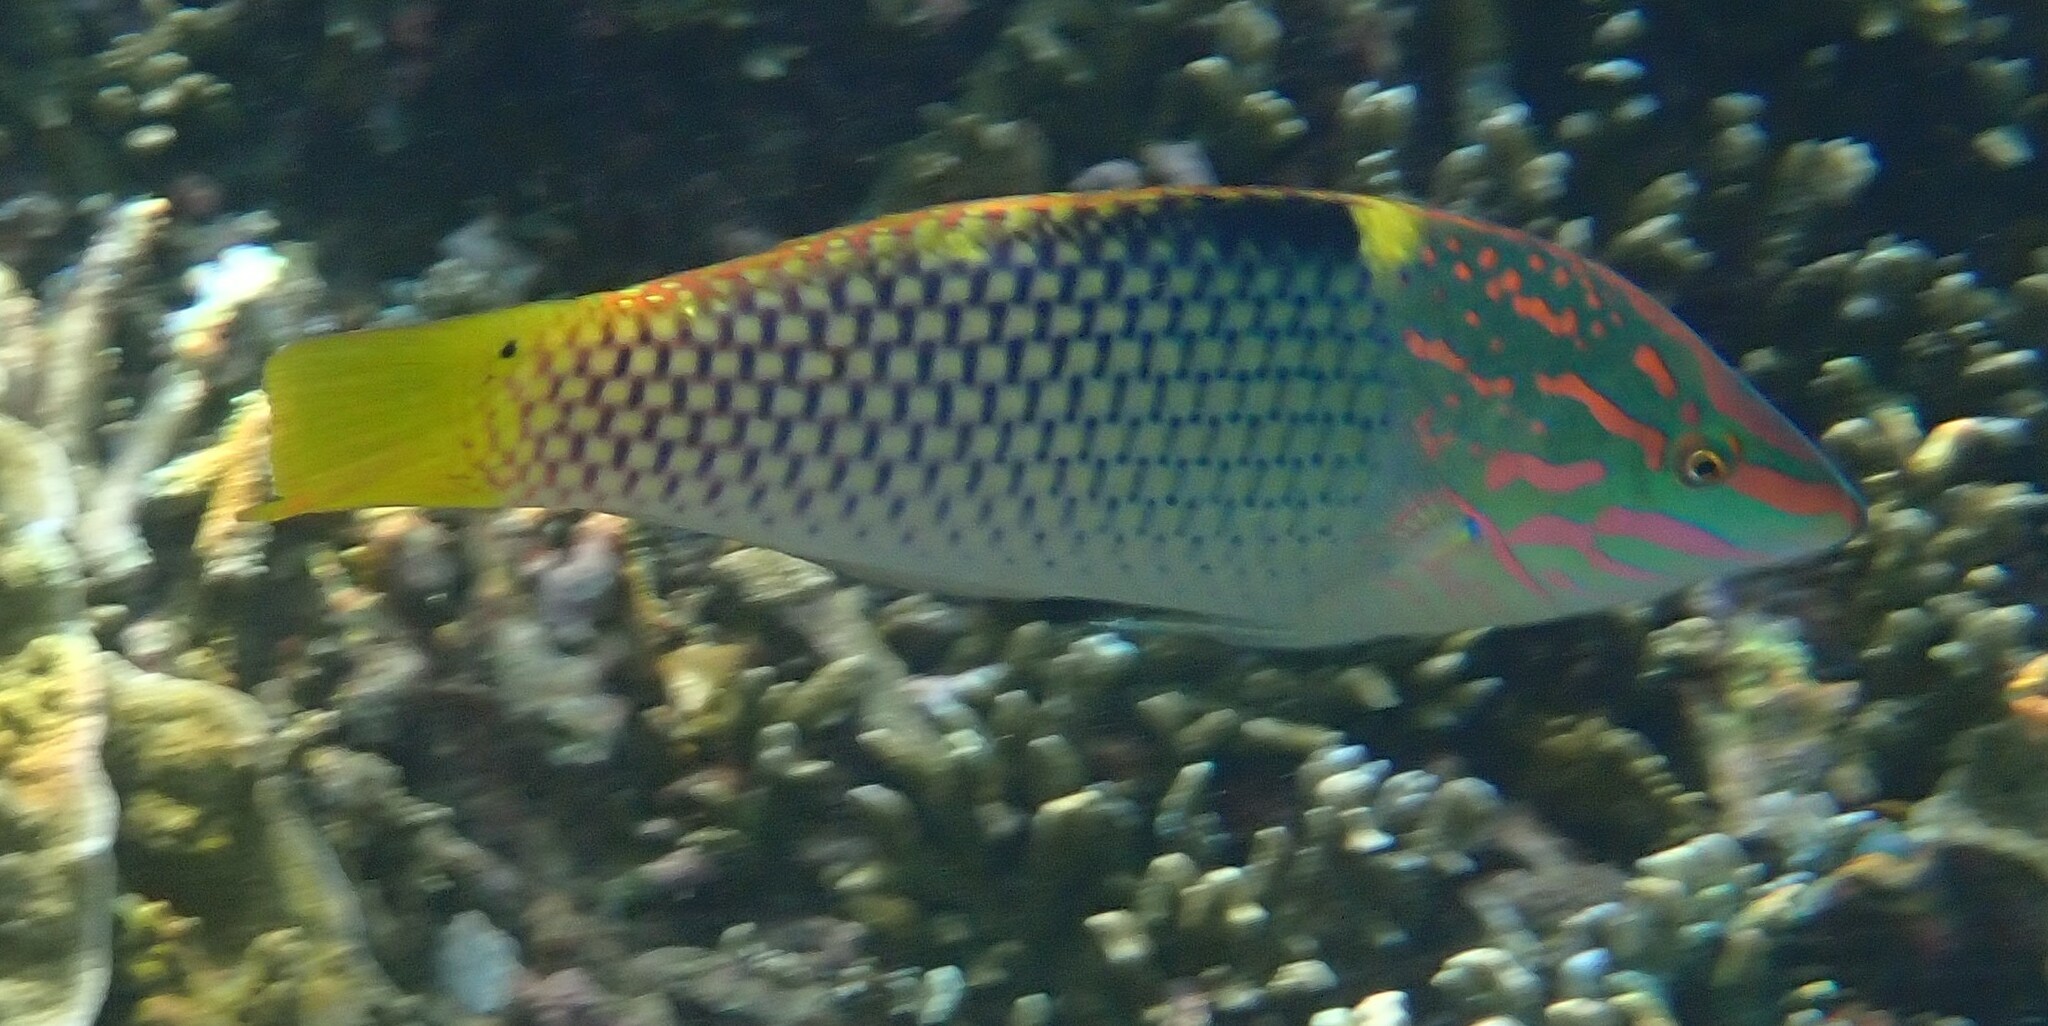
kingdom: Animalia
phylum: Chordata
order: Perciformes
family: Labridae
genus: Halichoeres
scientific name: Halichoeres hortulanus
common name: Checkerboard wrasse
